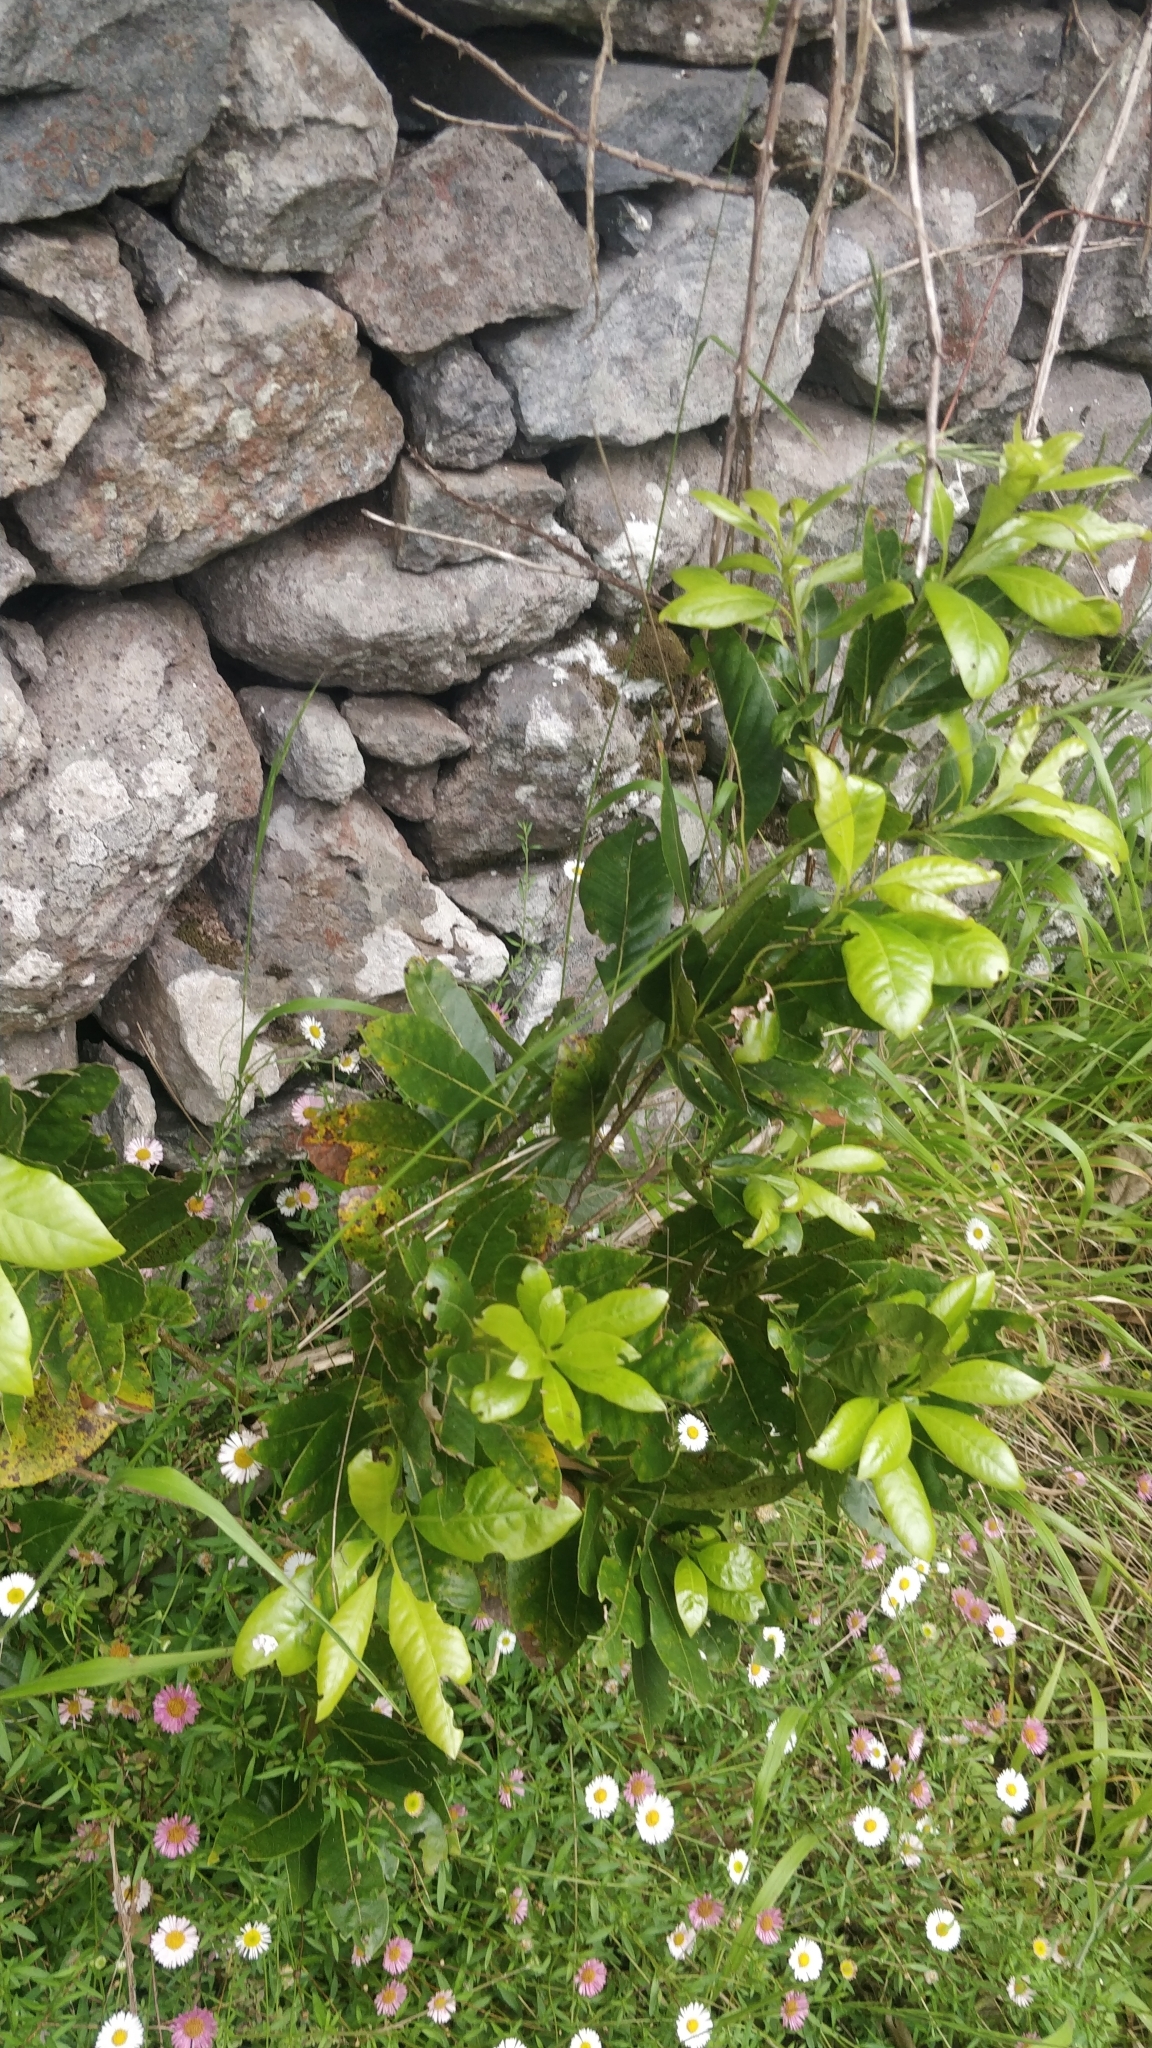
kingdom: Plantae
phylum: Tracheophyta
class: Magnoliopsida
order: Laurales
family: Lauraceae
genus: Laurus
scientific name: Laurus novocanariensis
